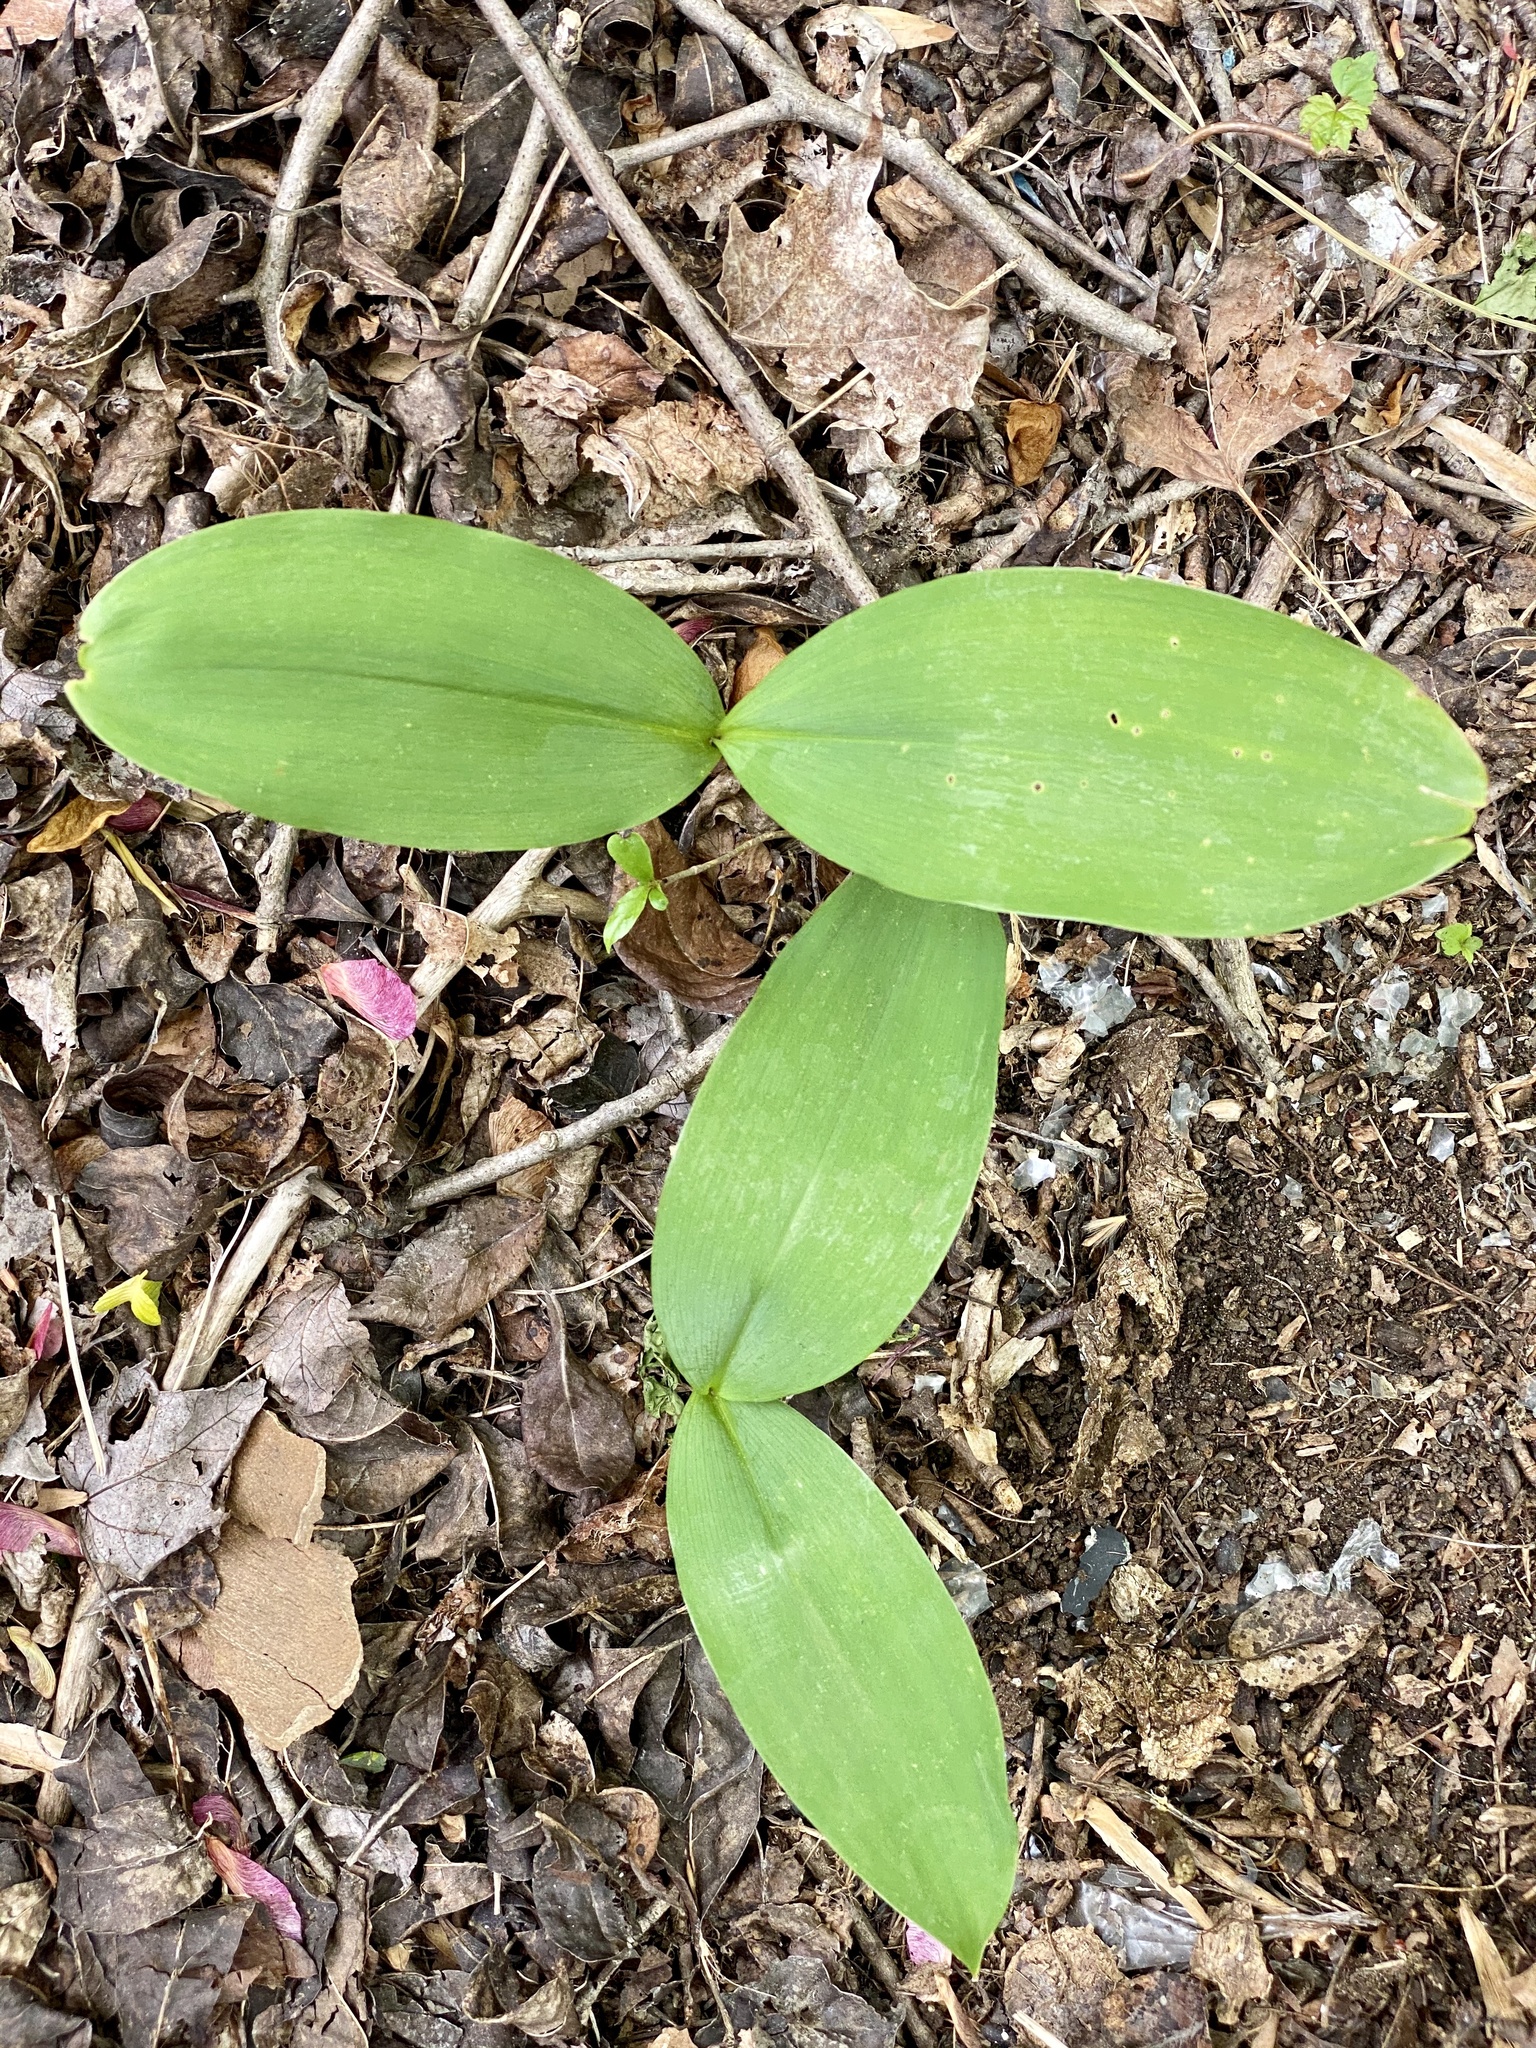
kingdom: Plantae
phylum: Tracheophyta
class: Liliopsida
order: Asparagales
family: Asparagaceae
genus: Convallaria
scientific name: Convallaria majalis
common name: Lily-of-the-valley
